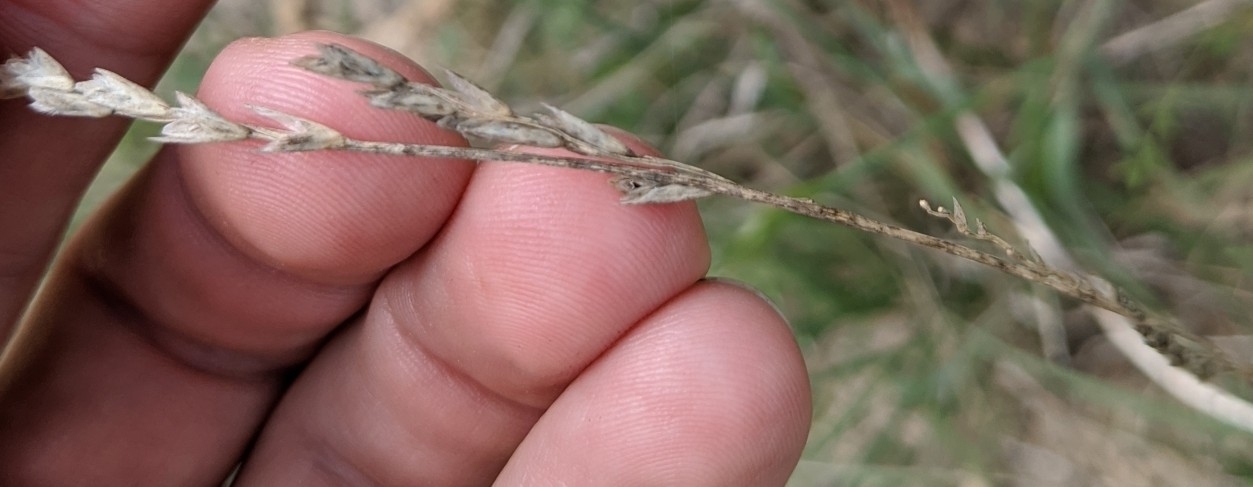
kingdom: Plantae
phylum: Tracheophyta
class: Liliopsida
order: Poales
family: Poaceae
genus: Tridentopsis
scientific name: Tridentopsis mutica
